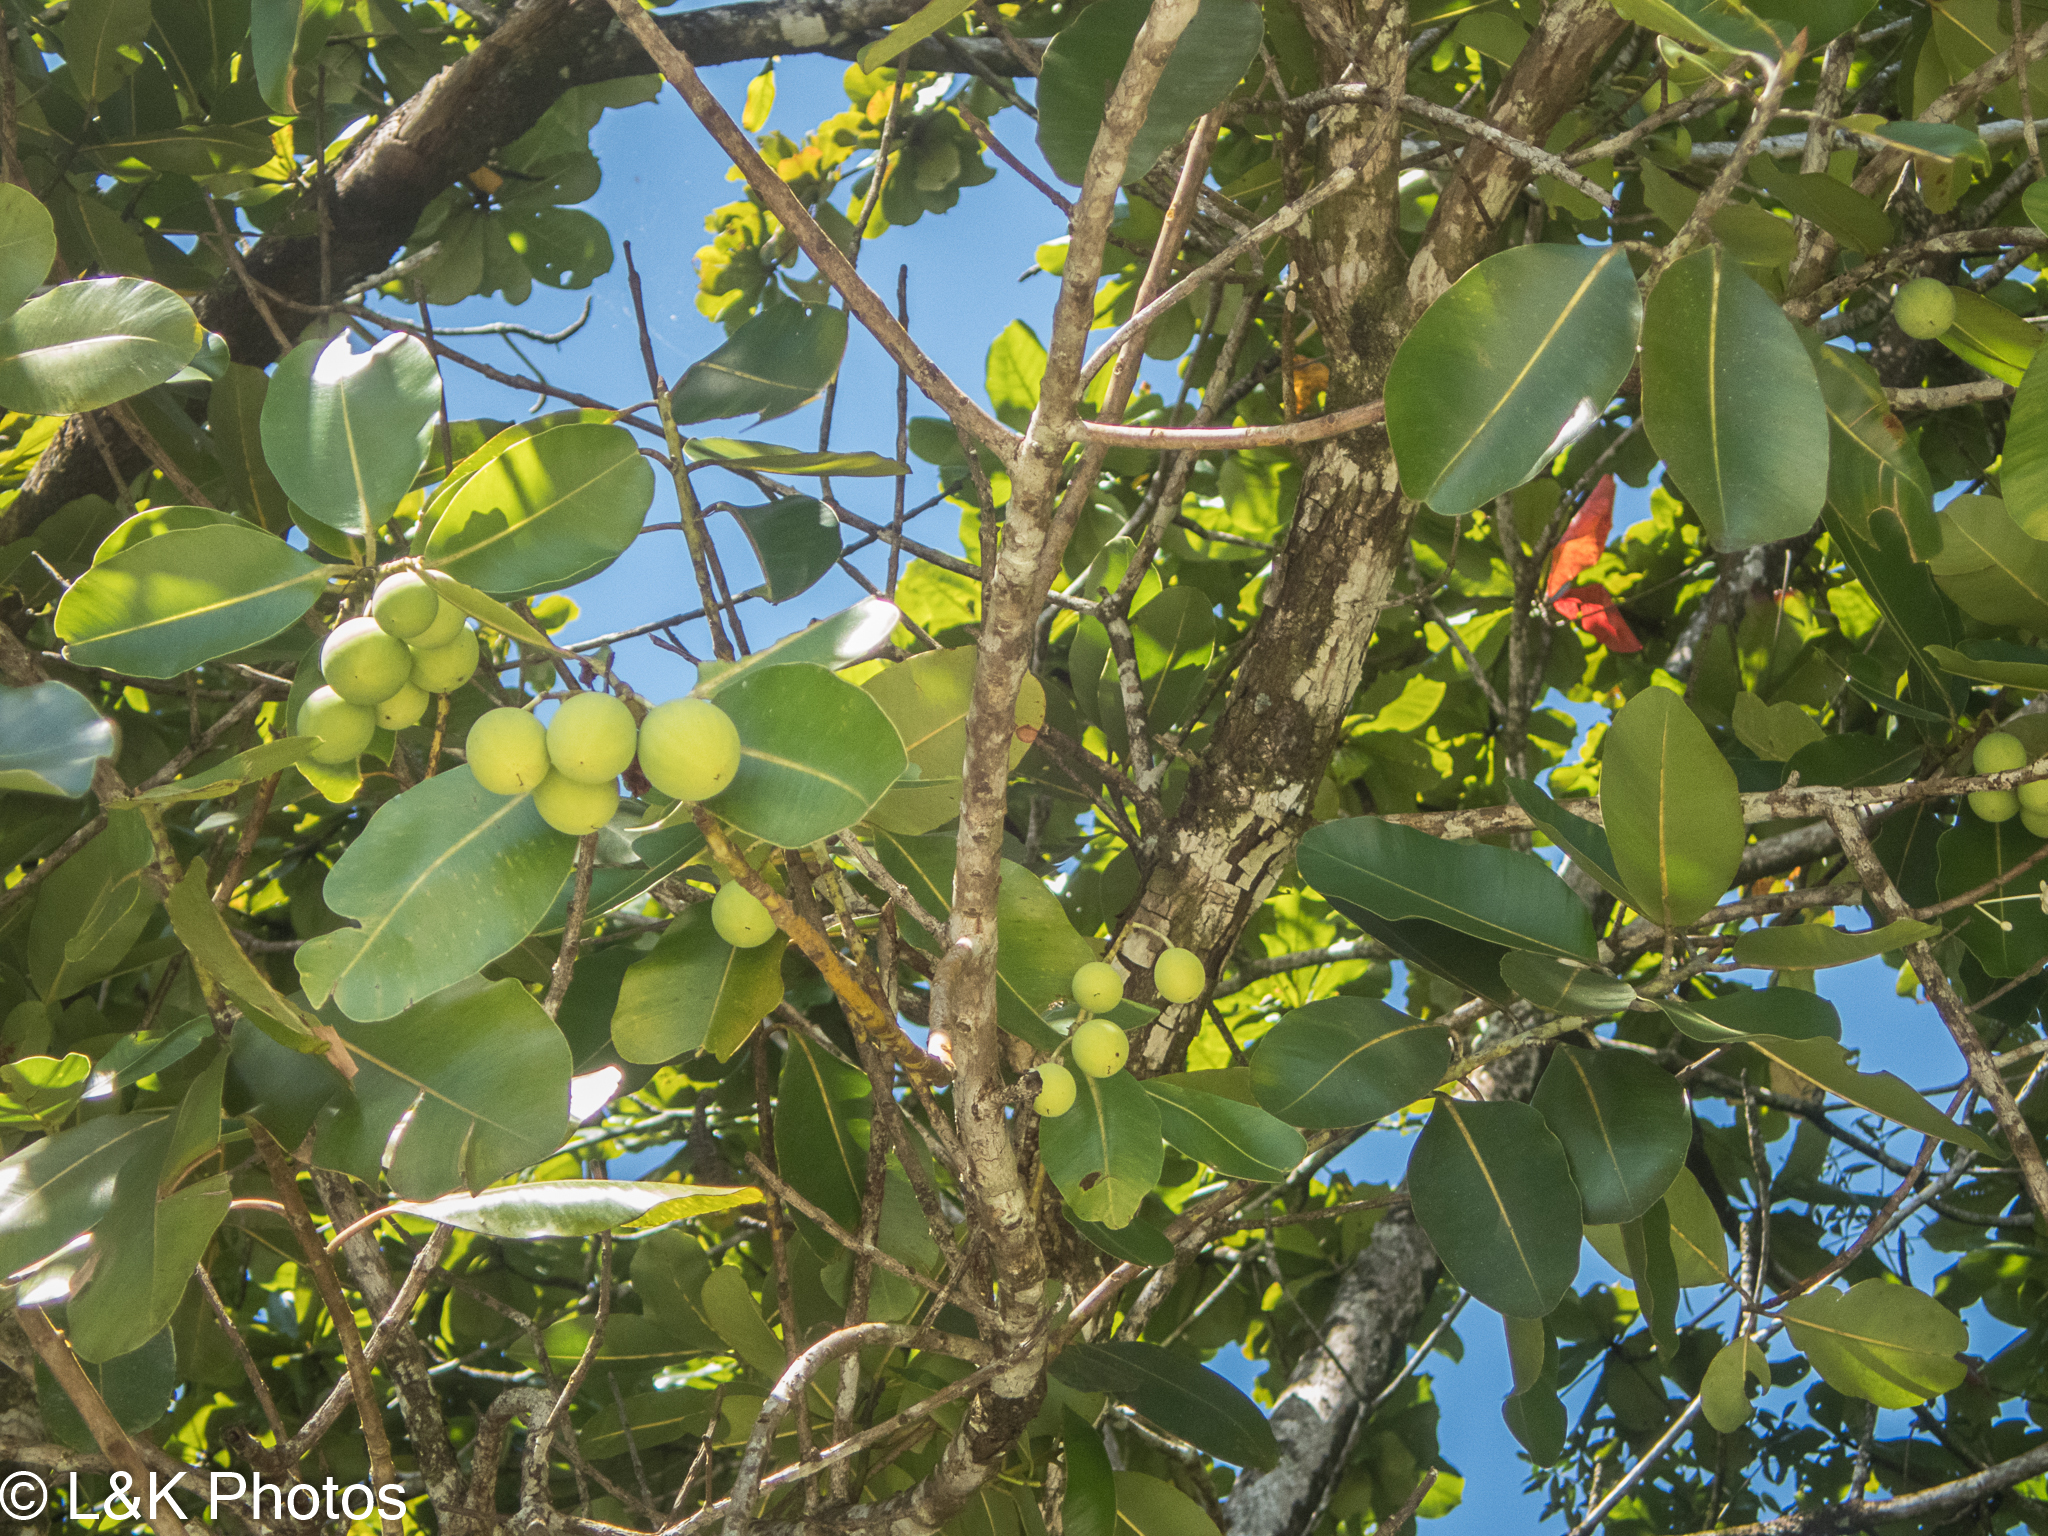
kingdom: Plantae
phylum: Tracheophyta
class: Magnoliopsida
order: Malpighiales
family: Calophyllaceae
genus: Calophyllum
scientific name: Calophyllum inophyllum
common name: Alexandrian laurel
